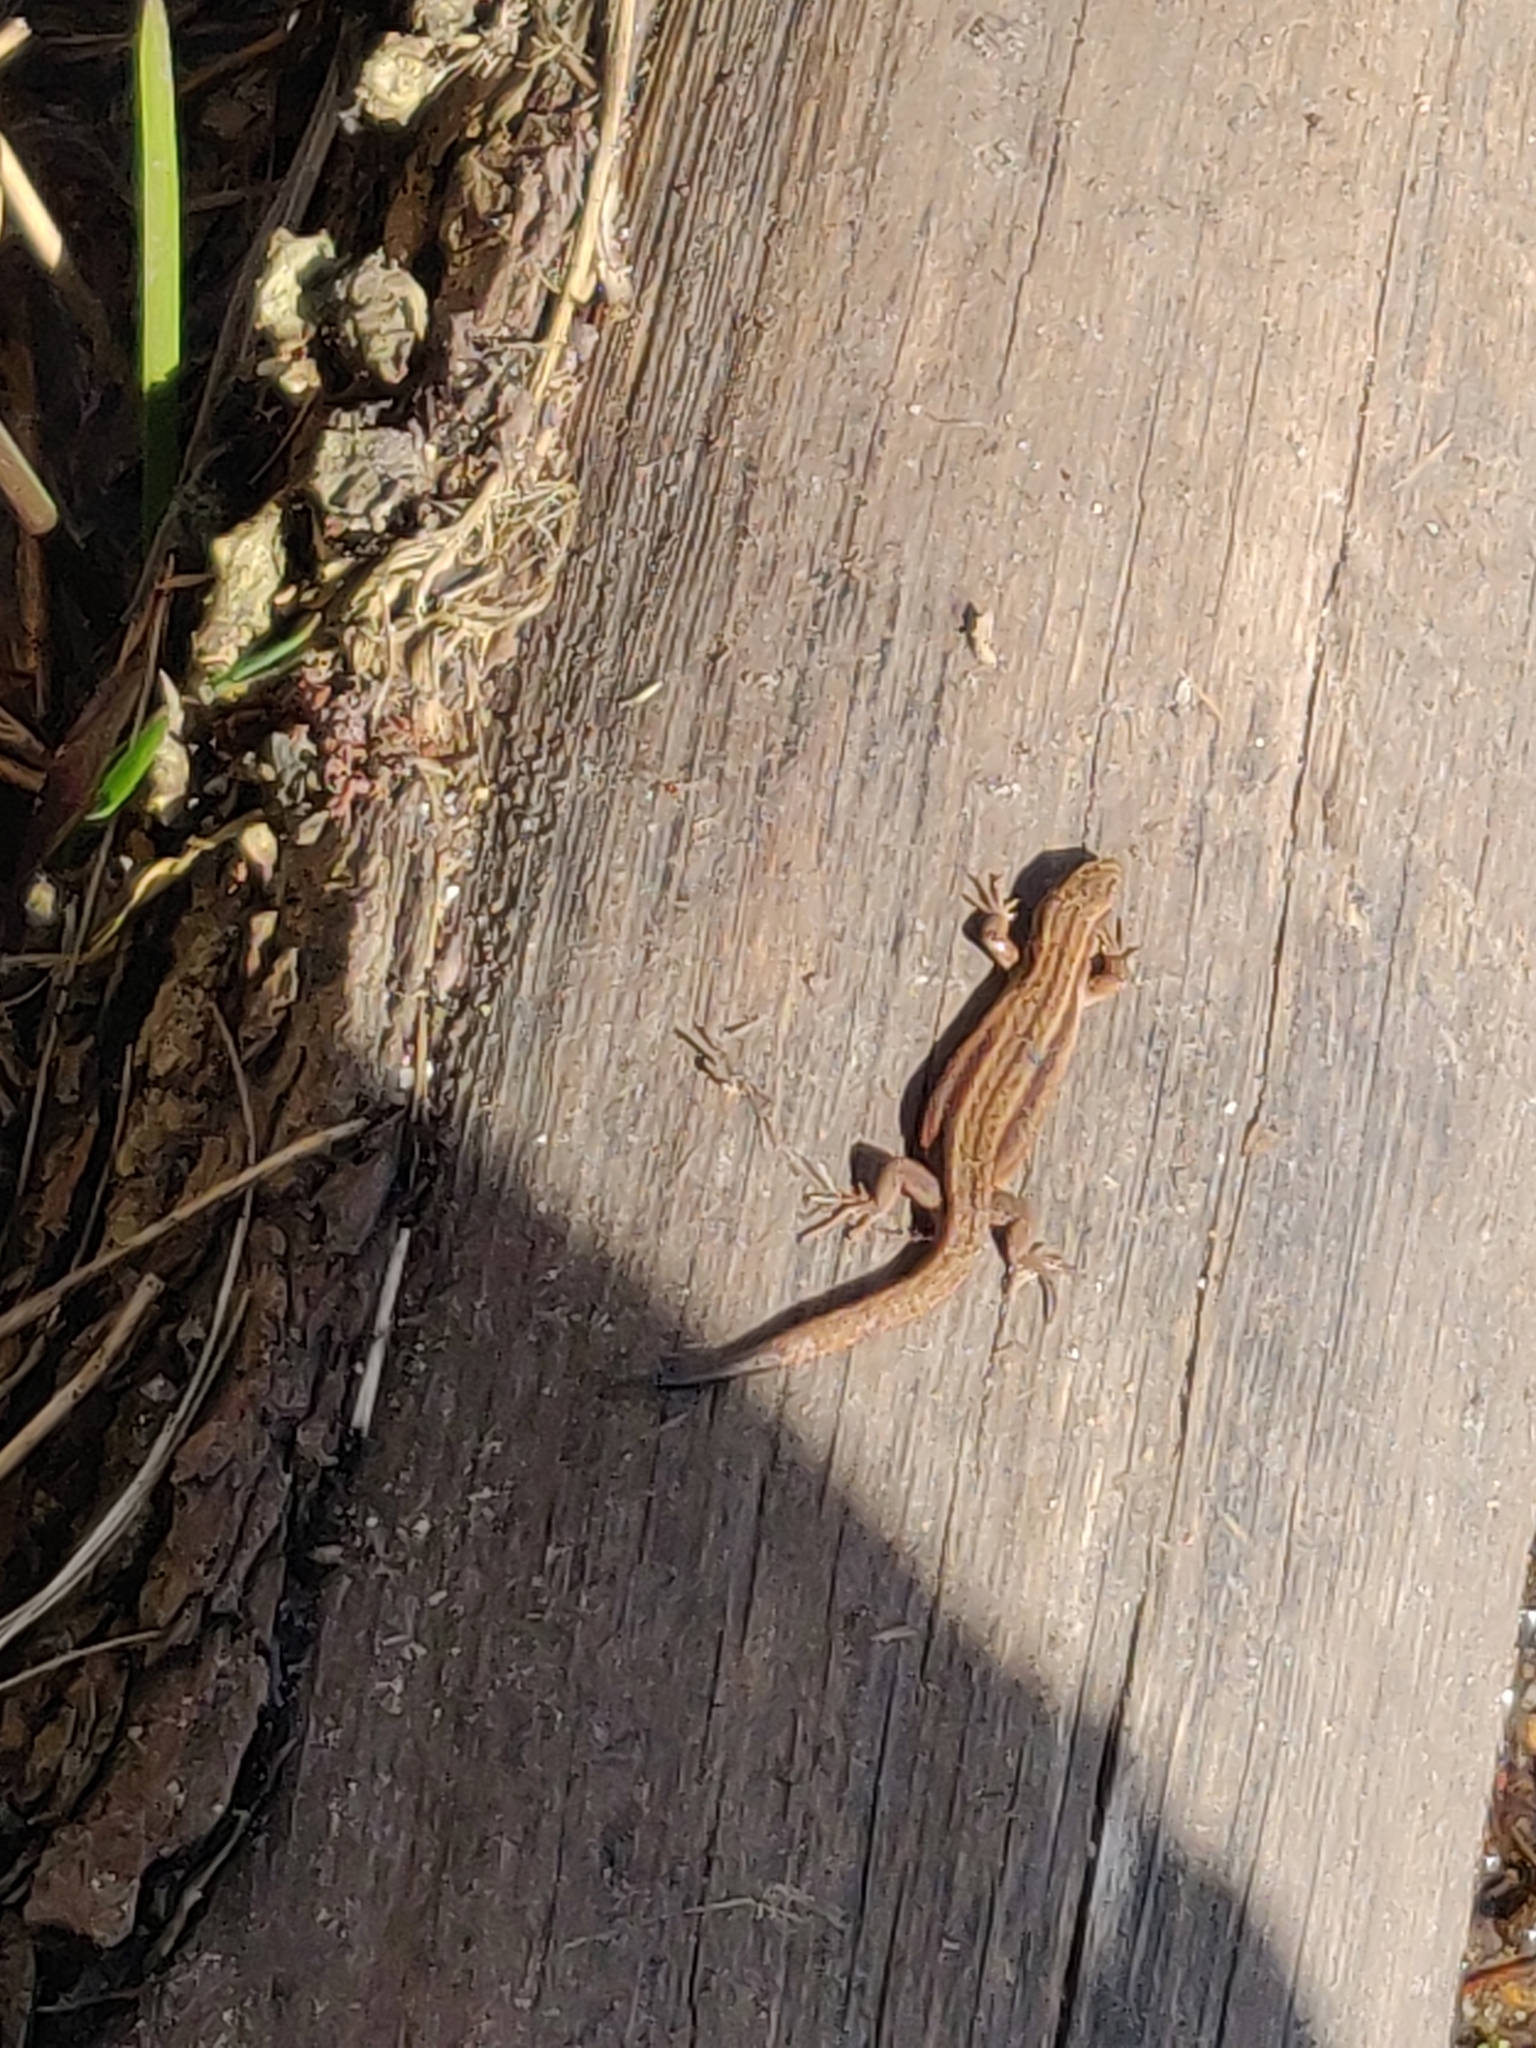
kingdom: Animalia
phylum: Chordata
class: Squamata
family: Lacertidae
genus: Zootoca
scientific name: Zootoca vivipara
